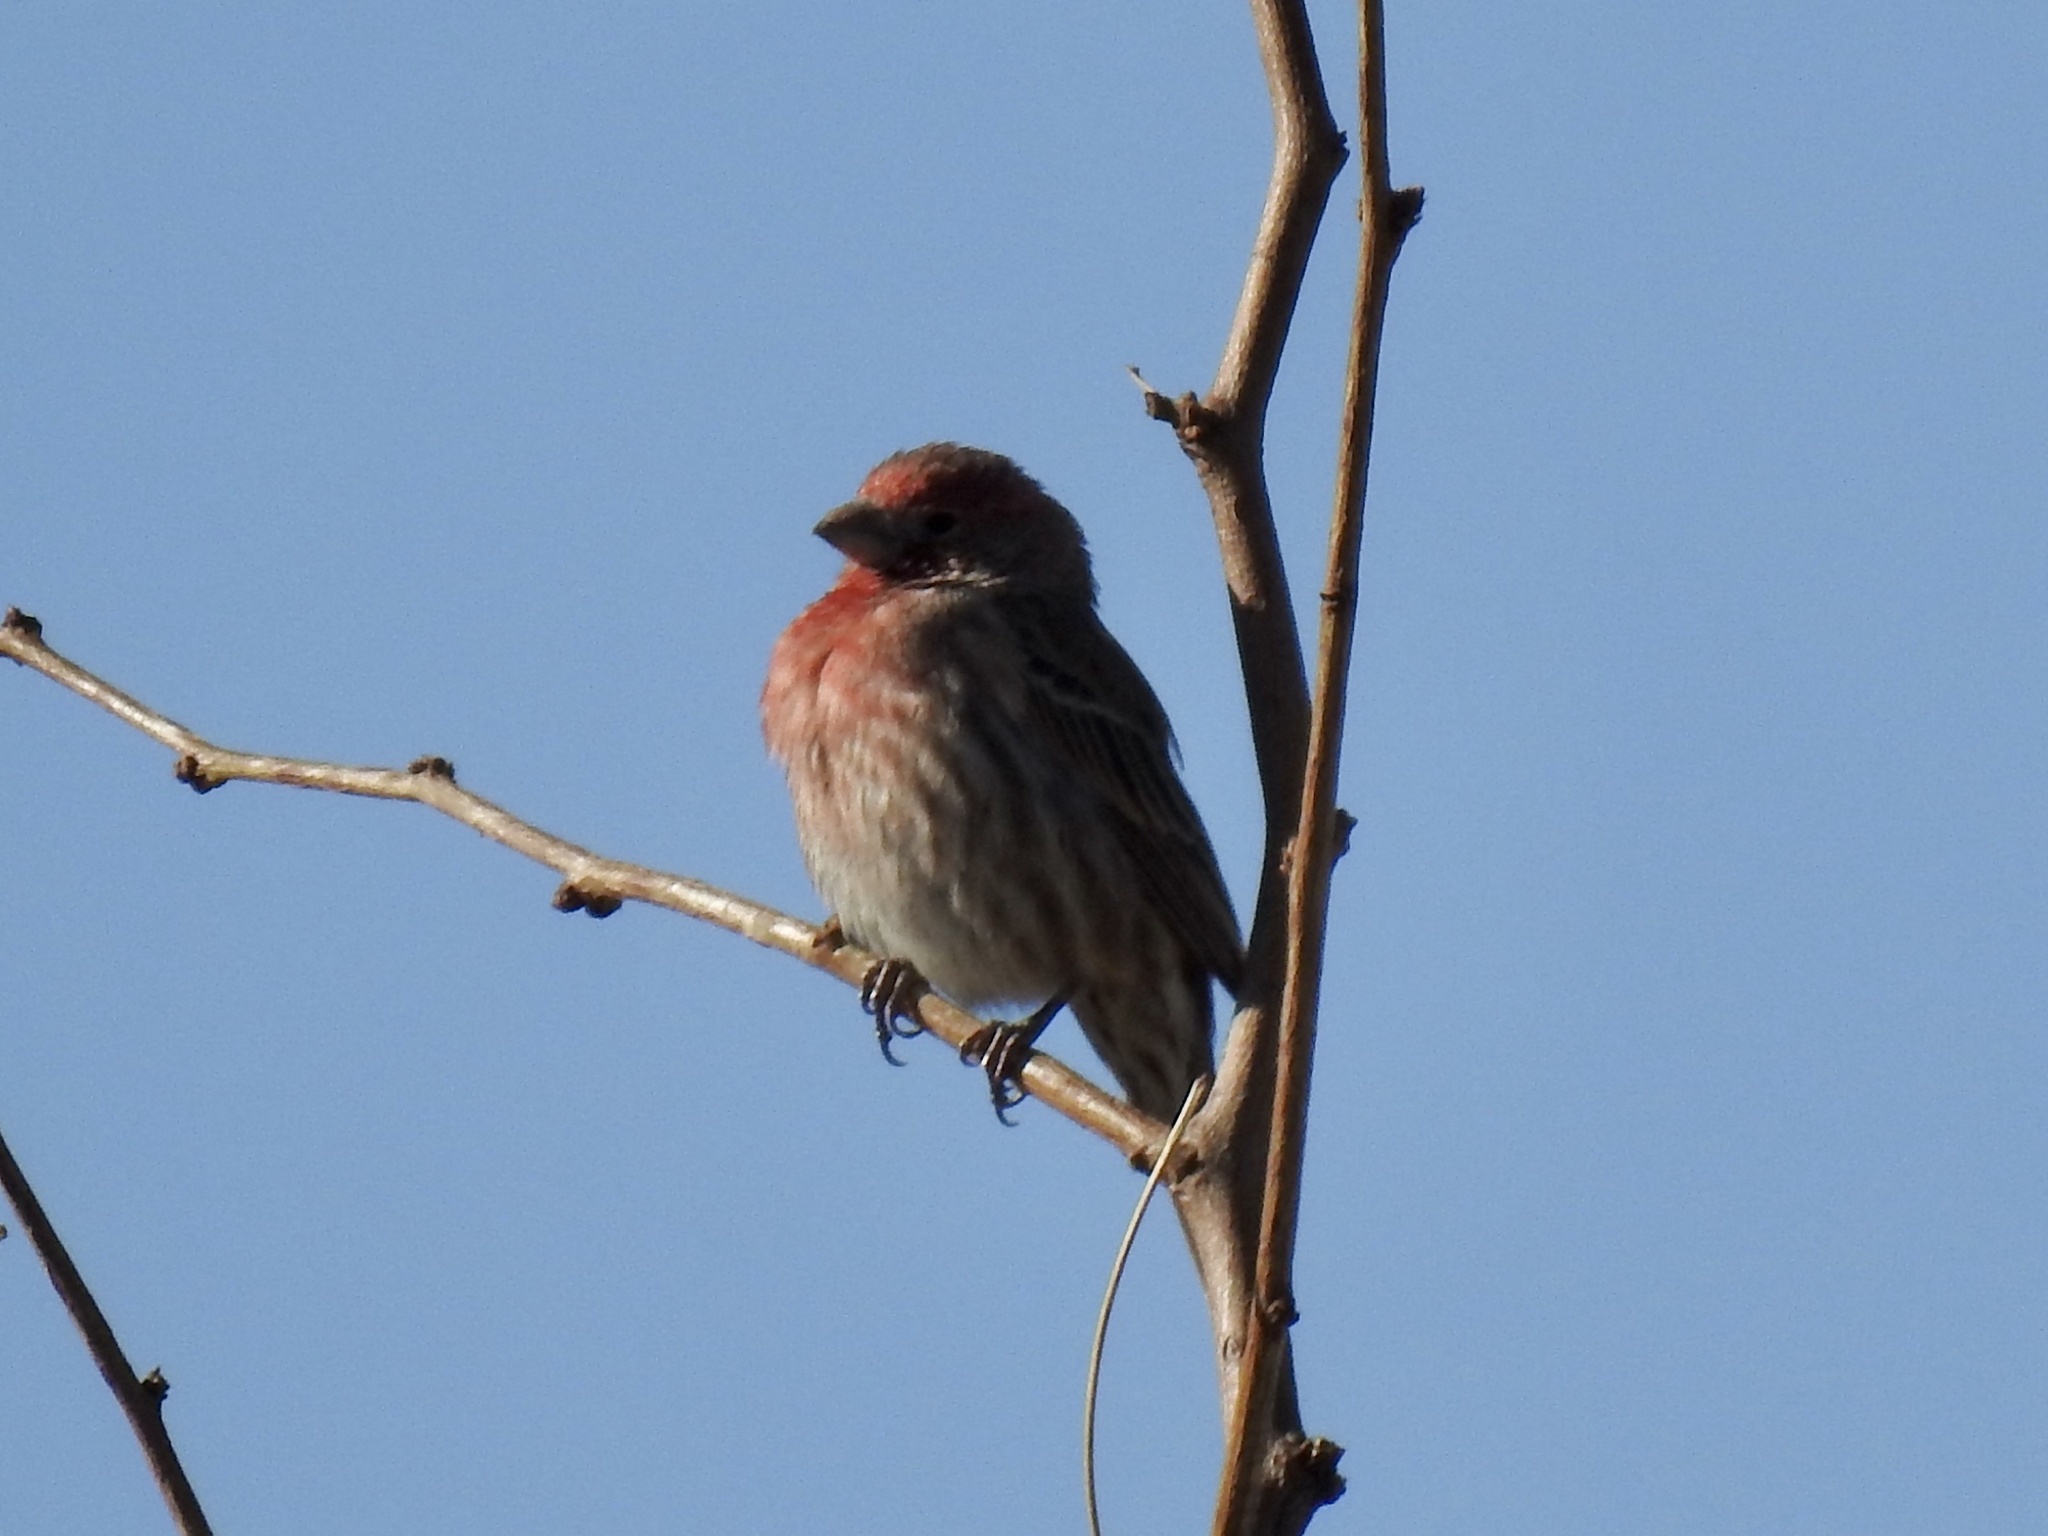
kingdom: Animalia
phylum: Chordata
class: Aves
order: Passeriformes
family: Fringillidae
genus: Haemorhous
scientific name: Haemorhous mexicanus
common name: House finch
